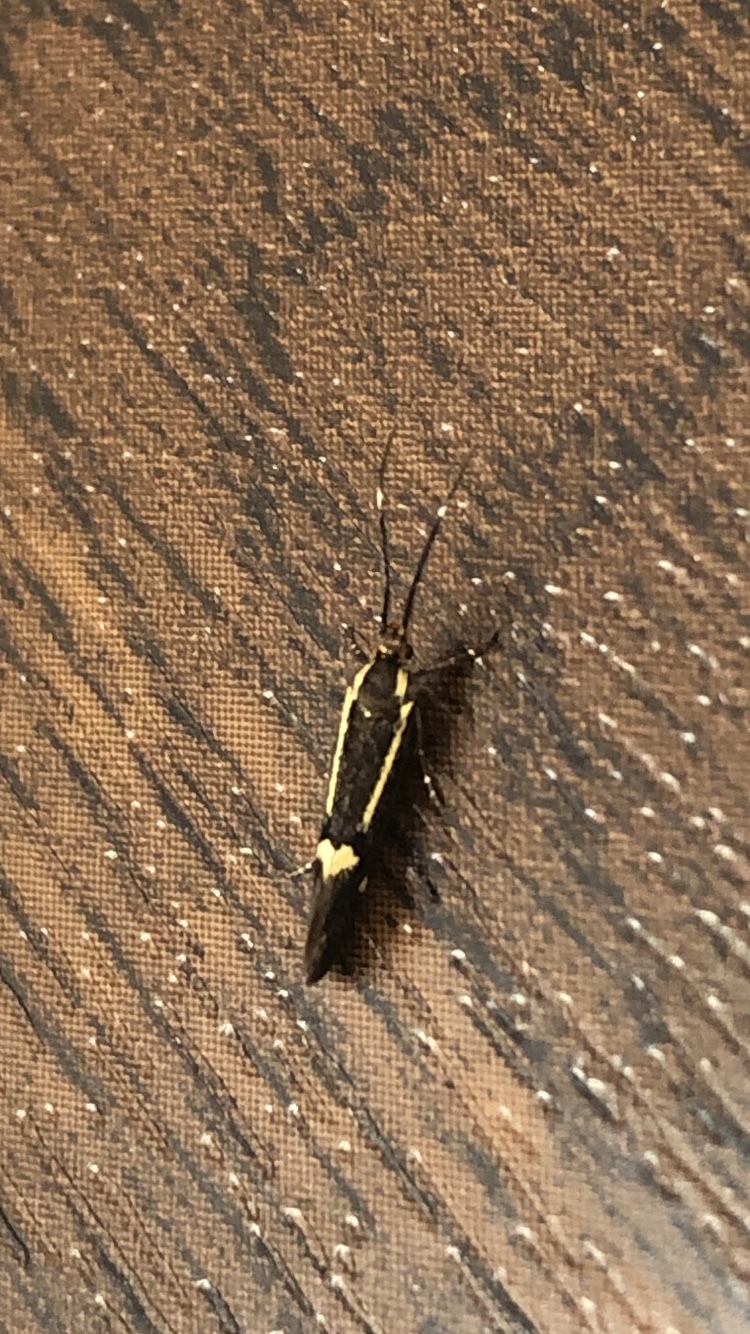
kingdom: Animalia
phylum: Arthropoda
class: Insecta
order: Lepidoptera
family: Oecophoridae
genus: Dafa
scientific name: Dafa Esperia sulphurella
